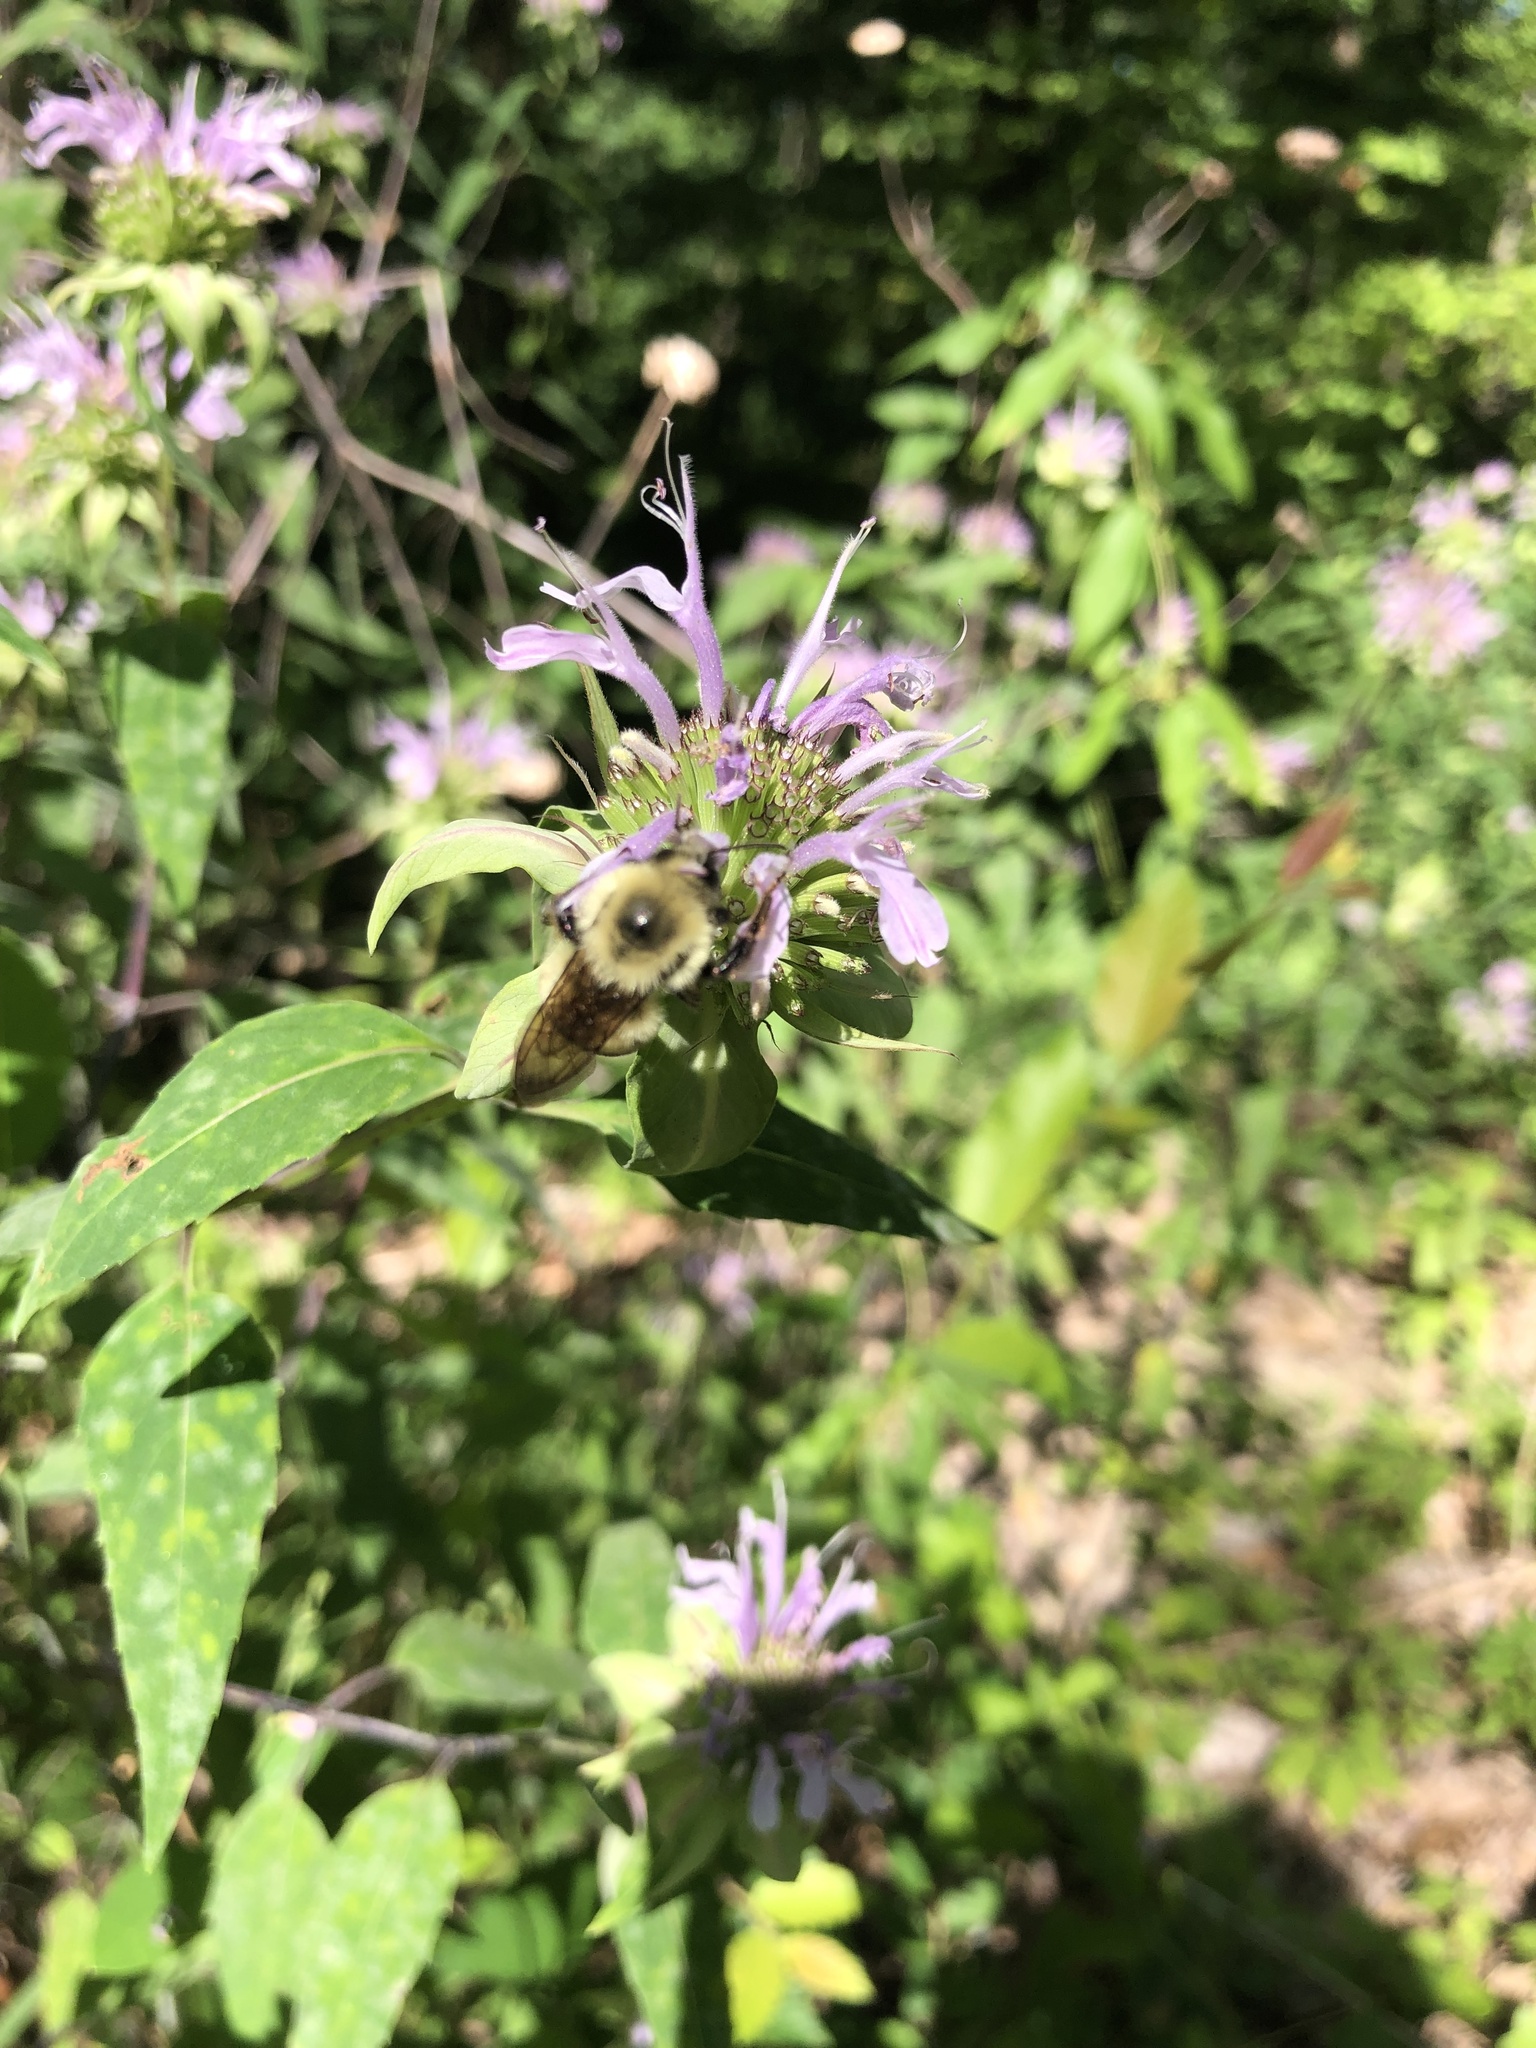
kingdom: Animalia
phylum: Arthropoda
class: Insecta
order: Hymenoptera
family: Apidae
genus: Bombus
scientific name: Bombus bimaculatus
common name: Two-spotted bumble bee
